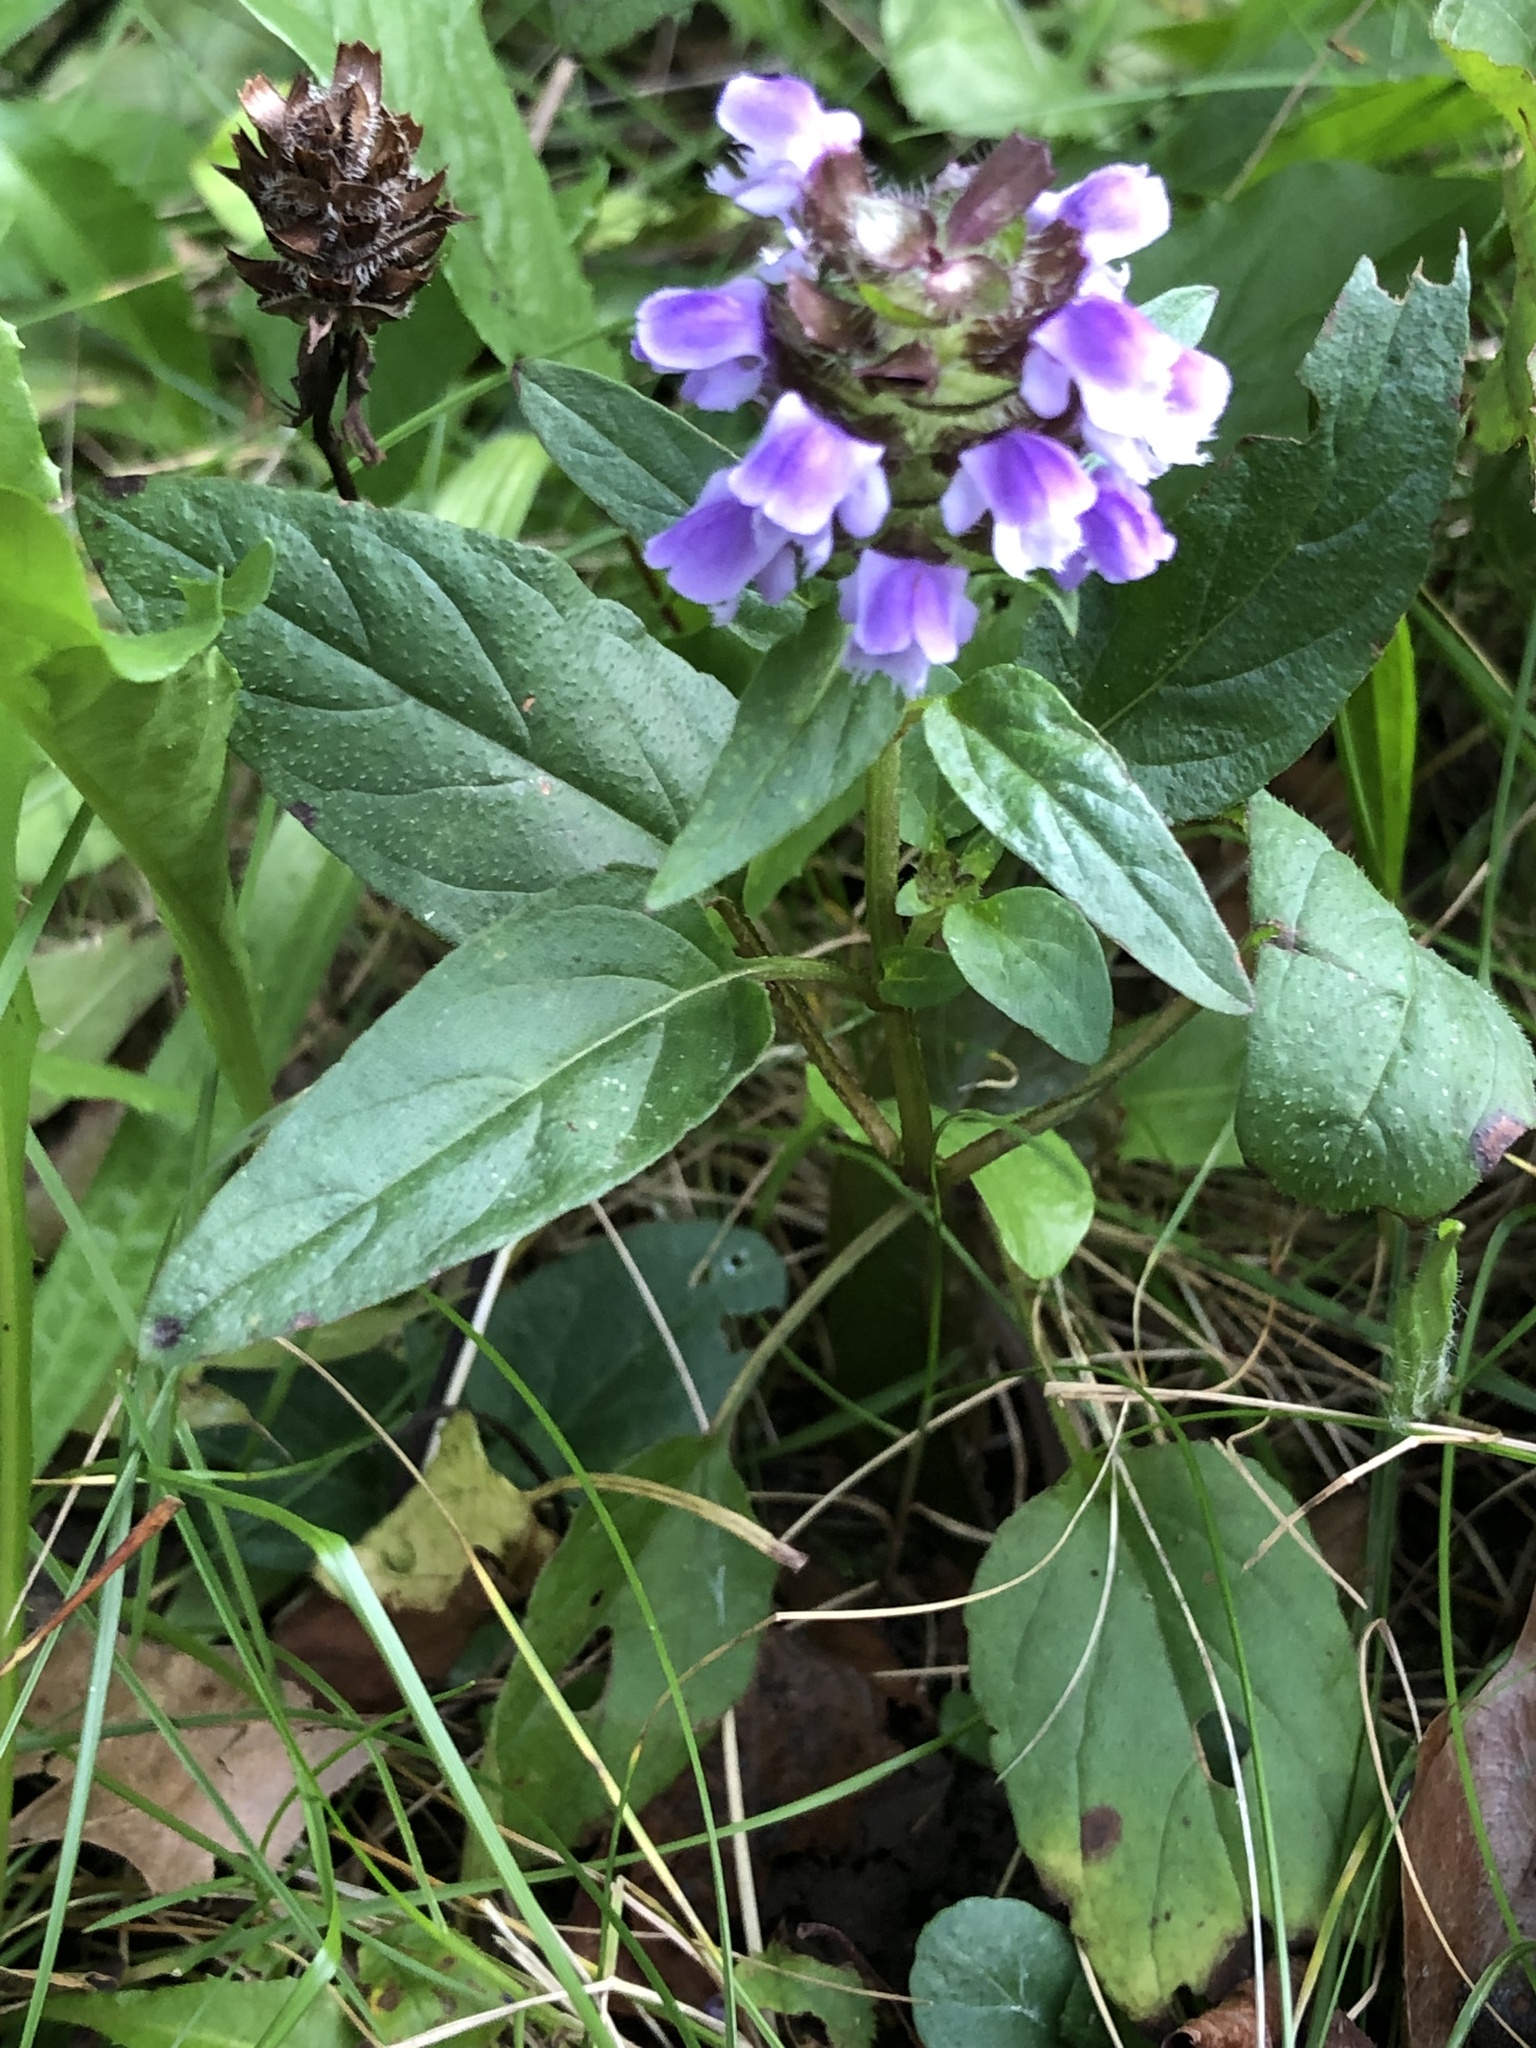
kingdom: Plantae
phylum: Tracheophyta
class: Magnoliopsida
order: Lamiales
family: Lamiaceae
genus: Prunella
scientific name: Prunella vulgaris
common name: Heal-all
